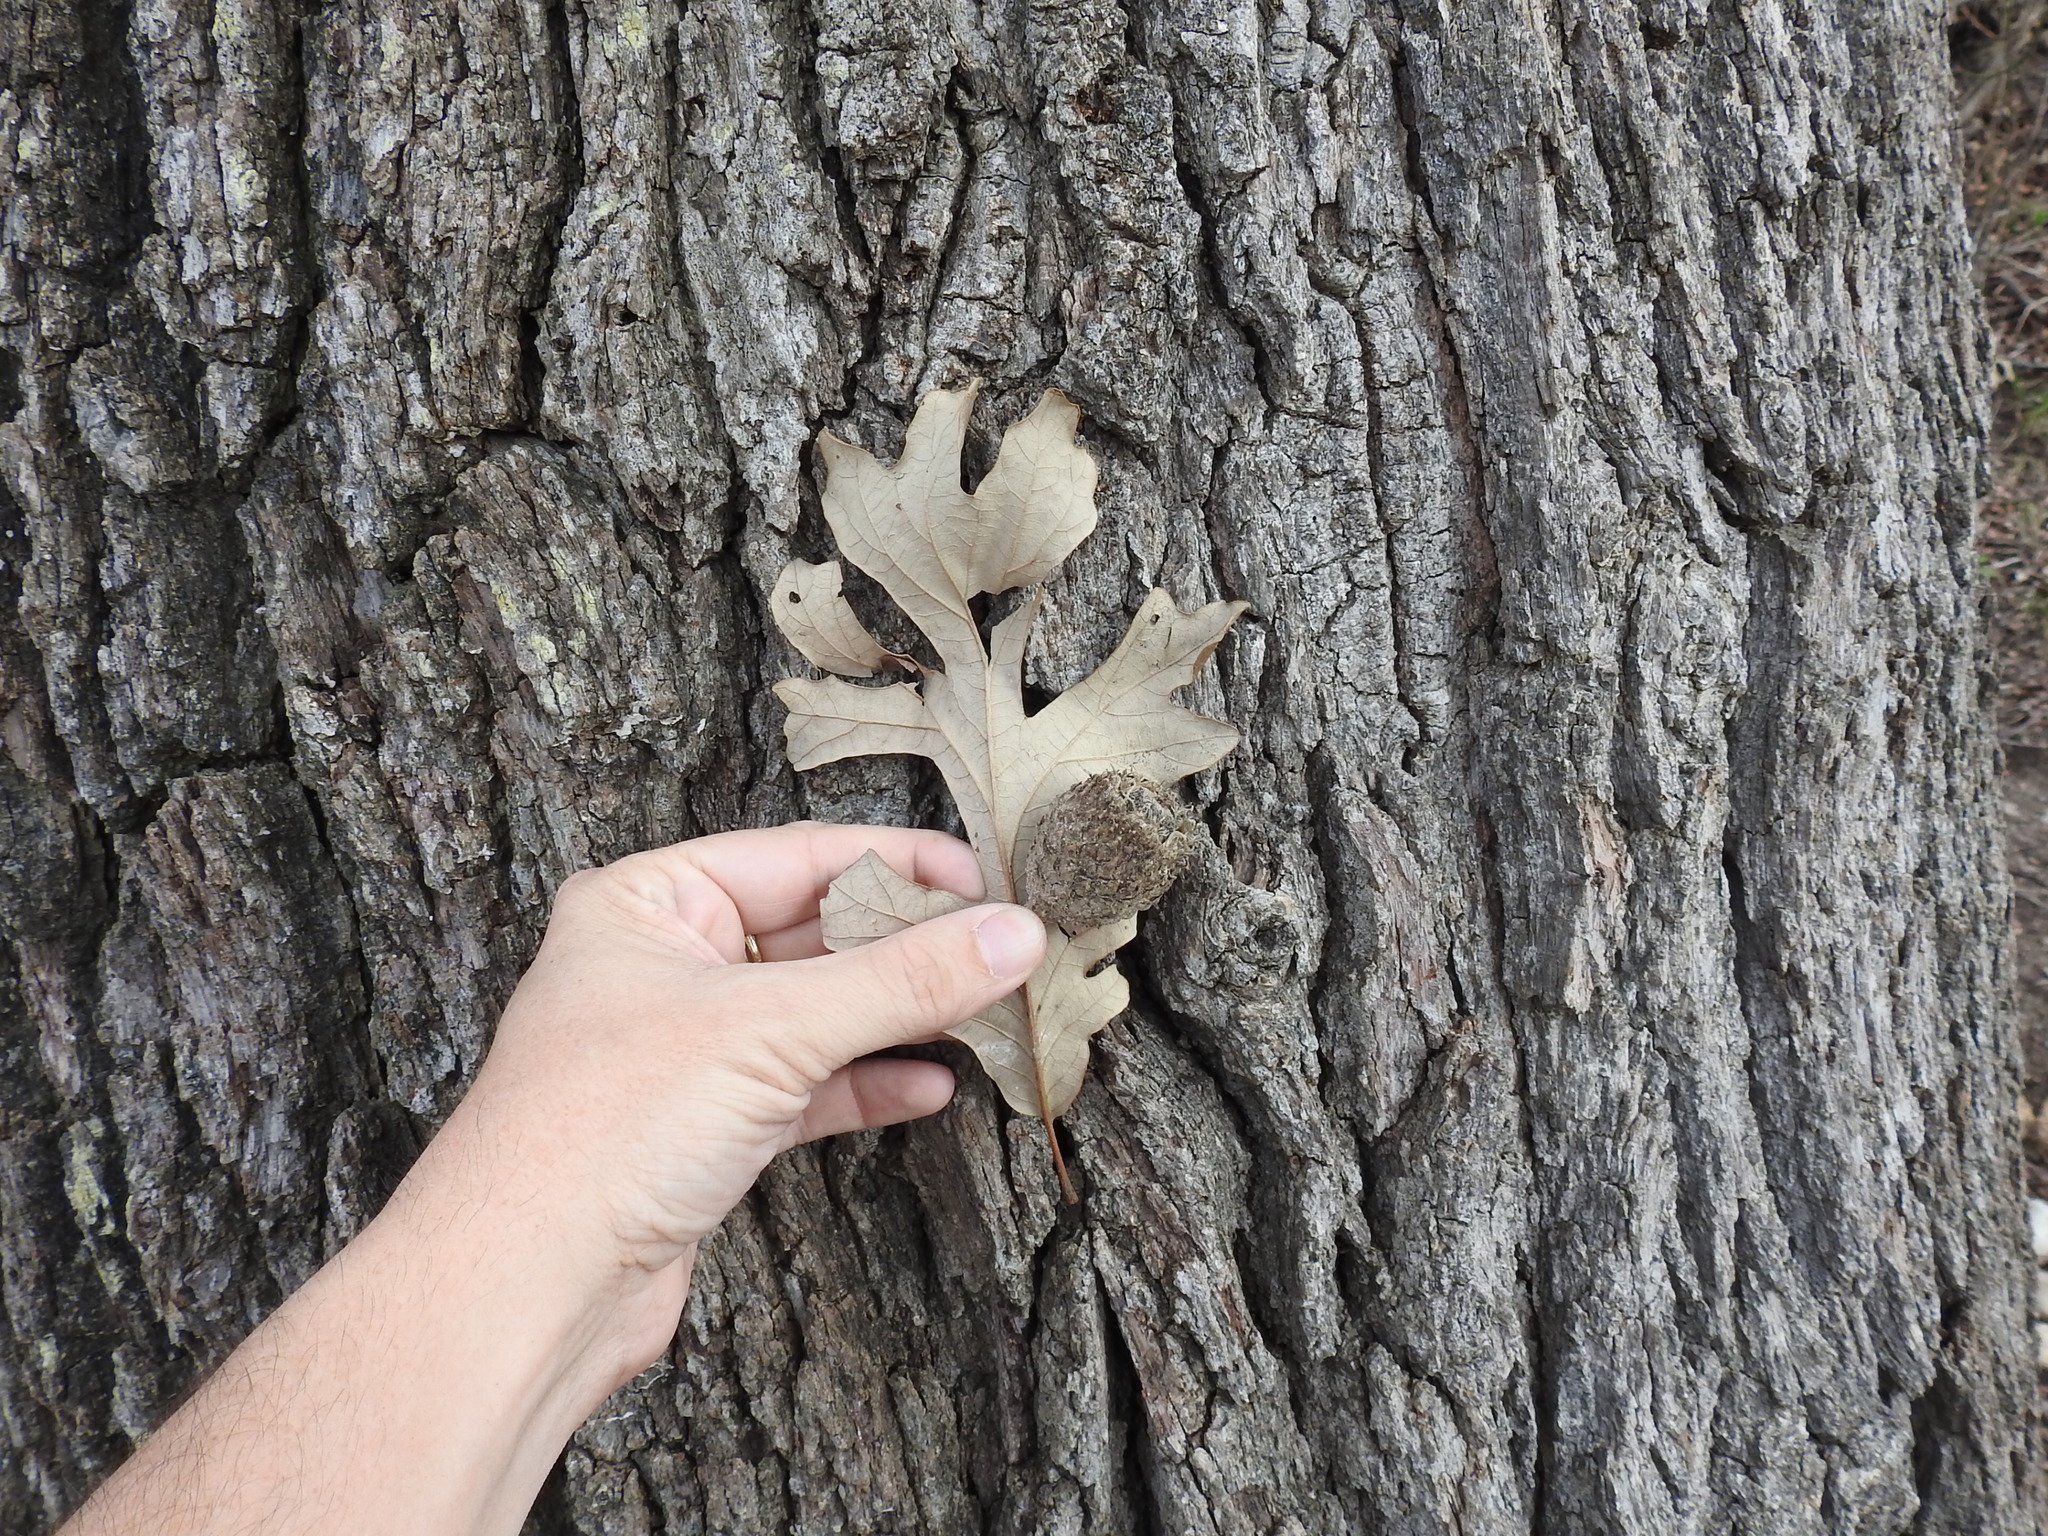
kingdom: Plantae
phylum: Tracheophyta
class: Magnoliopsida
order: Fagales
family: Fagaceae
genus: Quercus
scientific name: Quercus macrocarpa
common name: Bur oak
